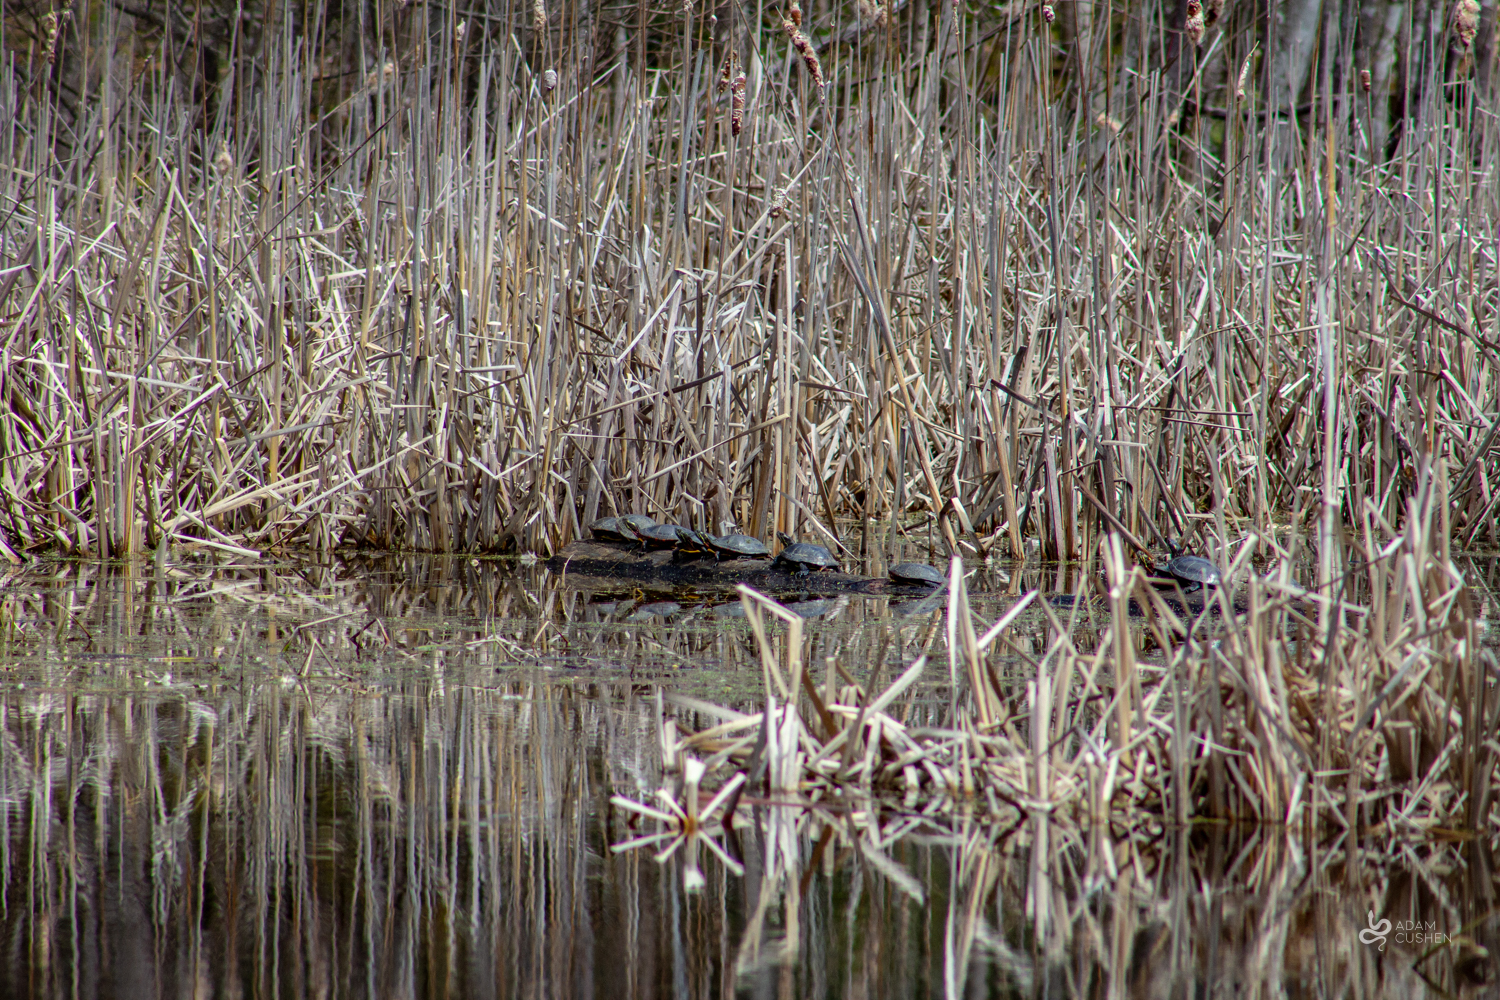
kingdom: Animalia
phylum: Chordata
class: Testudines
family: Emydidae
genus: Chrysemys
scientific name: Chrysemys picta
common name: Painted turtle
